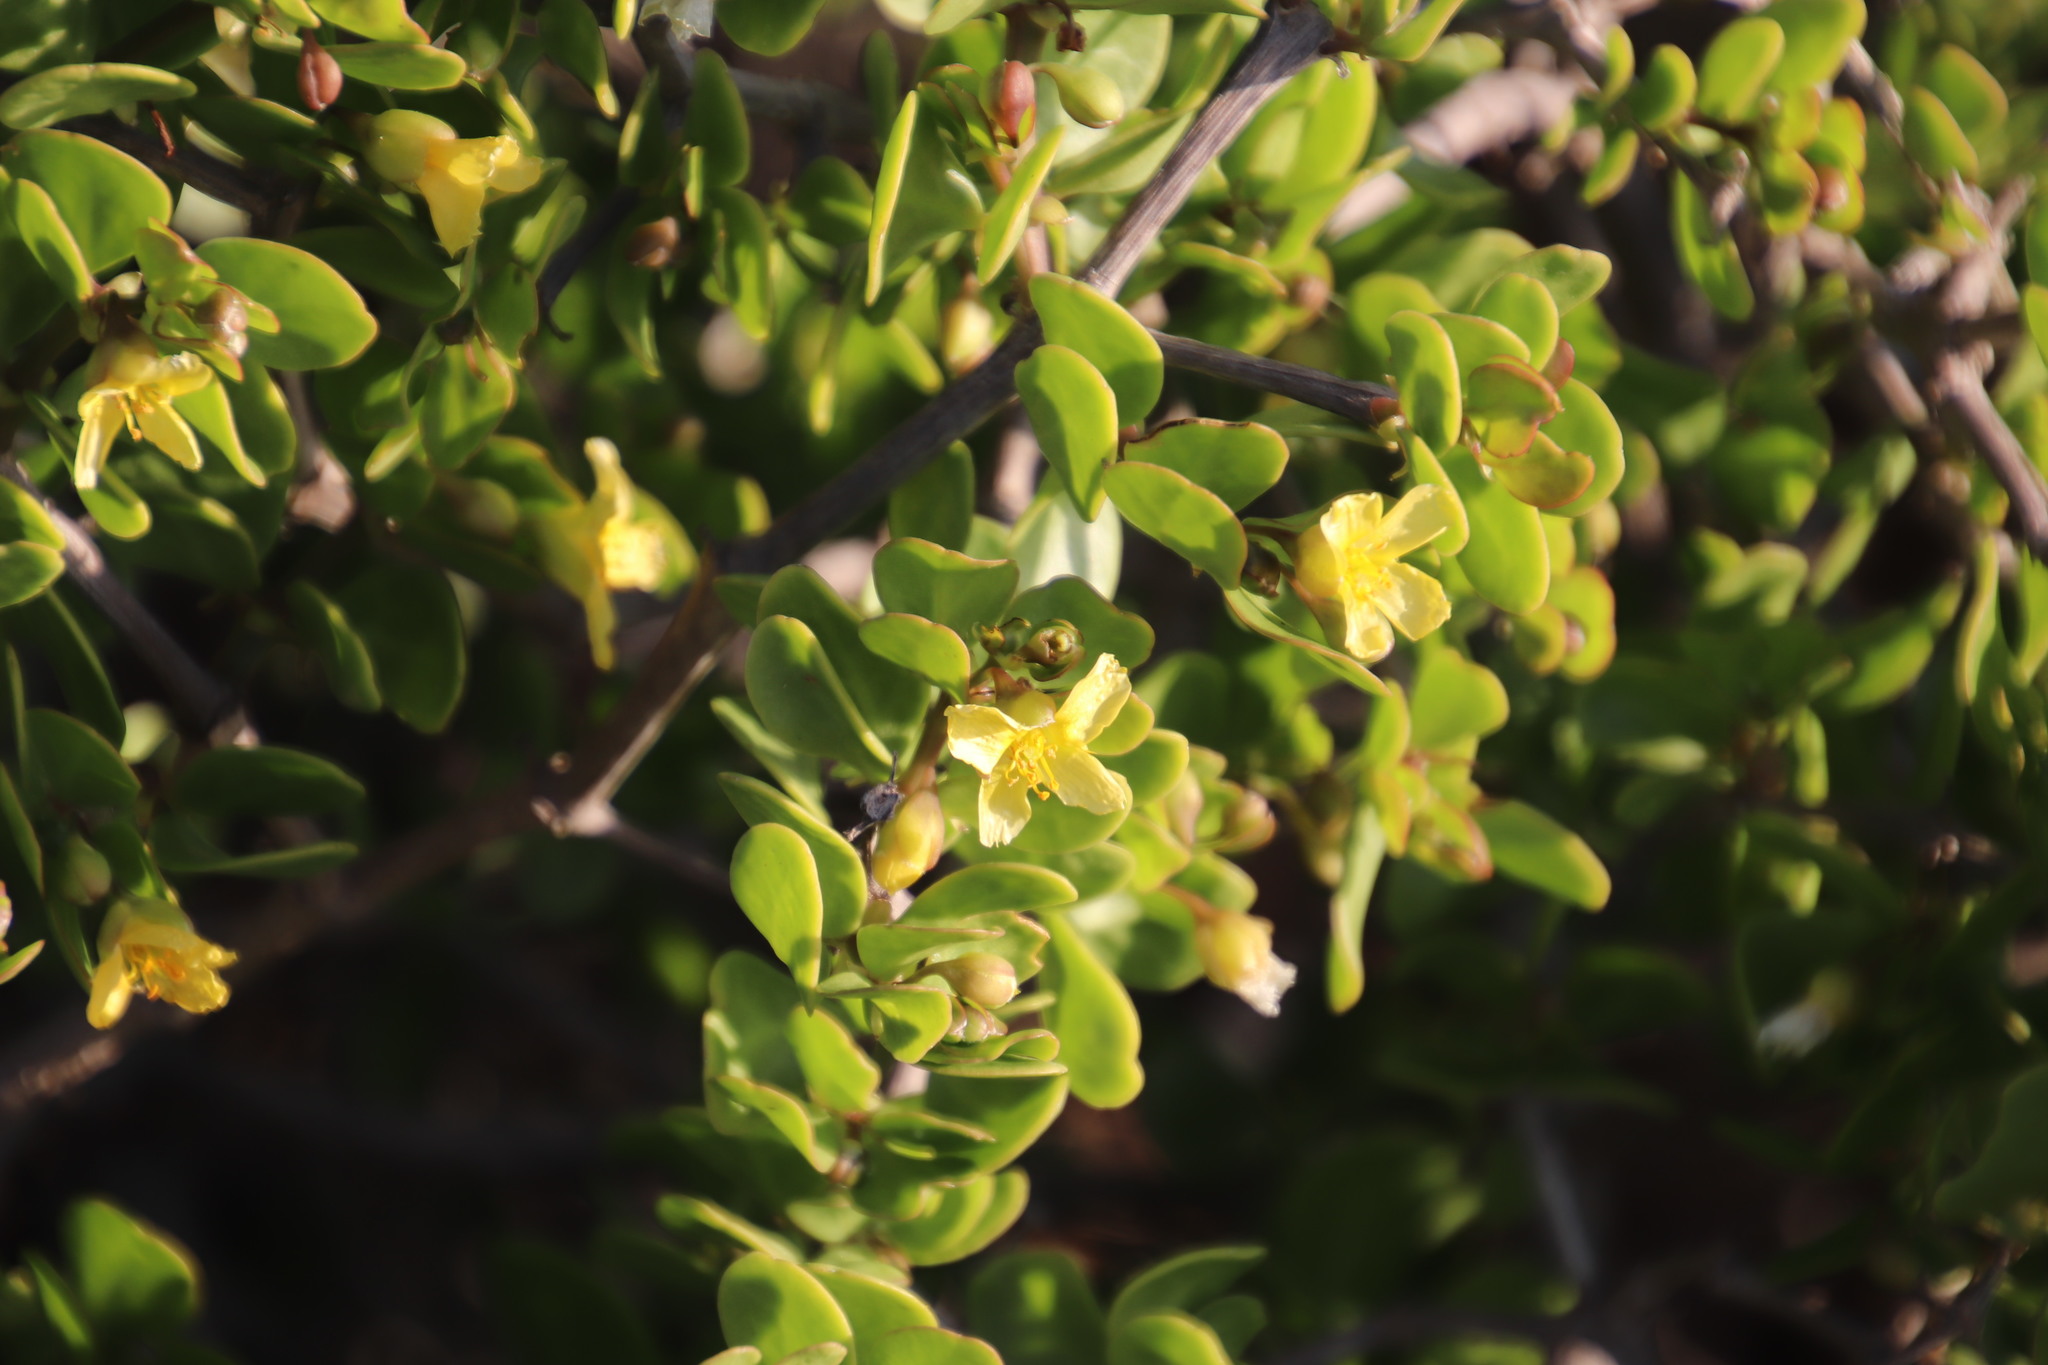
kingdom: Plantae
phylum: Tracheophyta
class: Magnoliopsida
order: Zygophyllales
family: Zygophyllaceae
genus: Roepera
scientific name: Roepera morgsana
